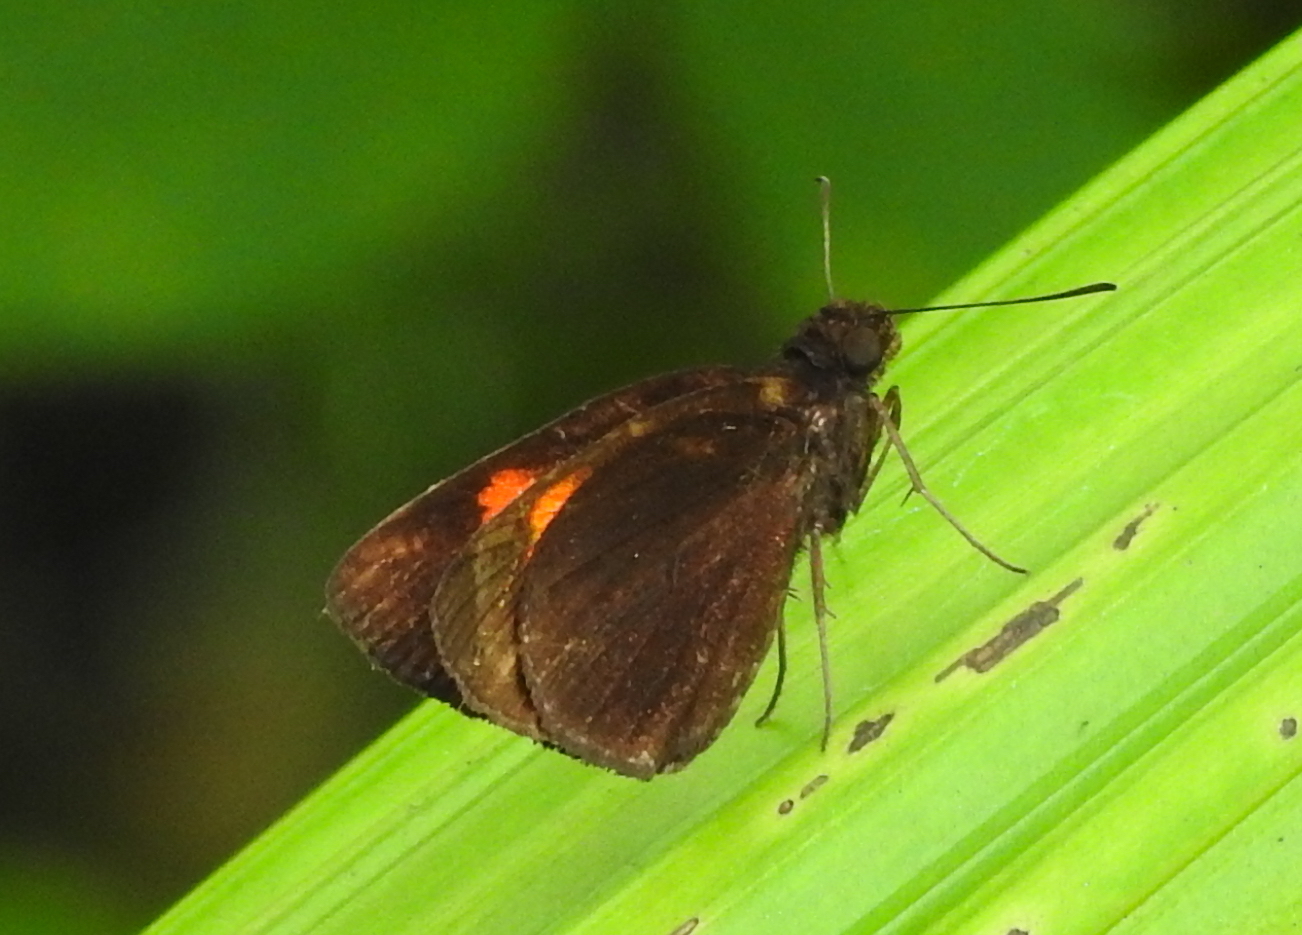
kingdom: Animalia
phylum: Arthropoda
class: Insecta
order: Lepidoptera
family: Hesperiidae
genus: Koruthaialos
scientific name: Koruthaialos rubecula
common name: Narrow-banded velvet bob
